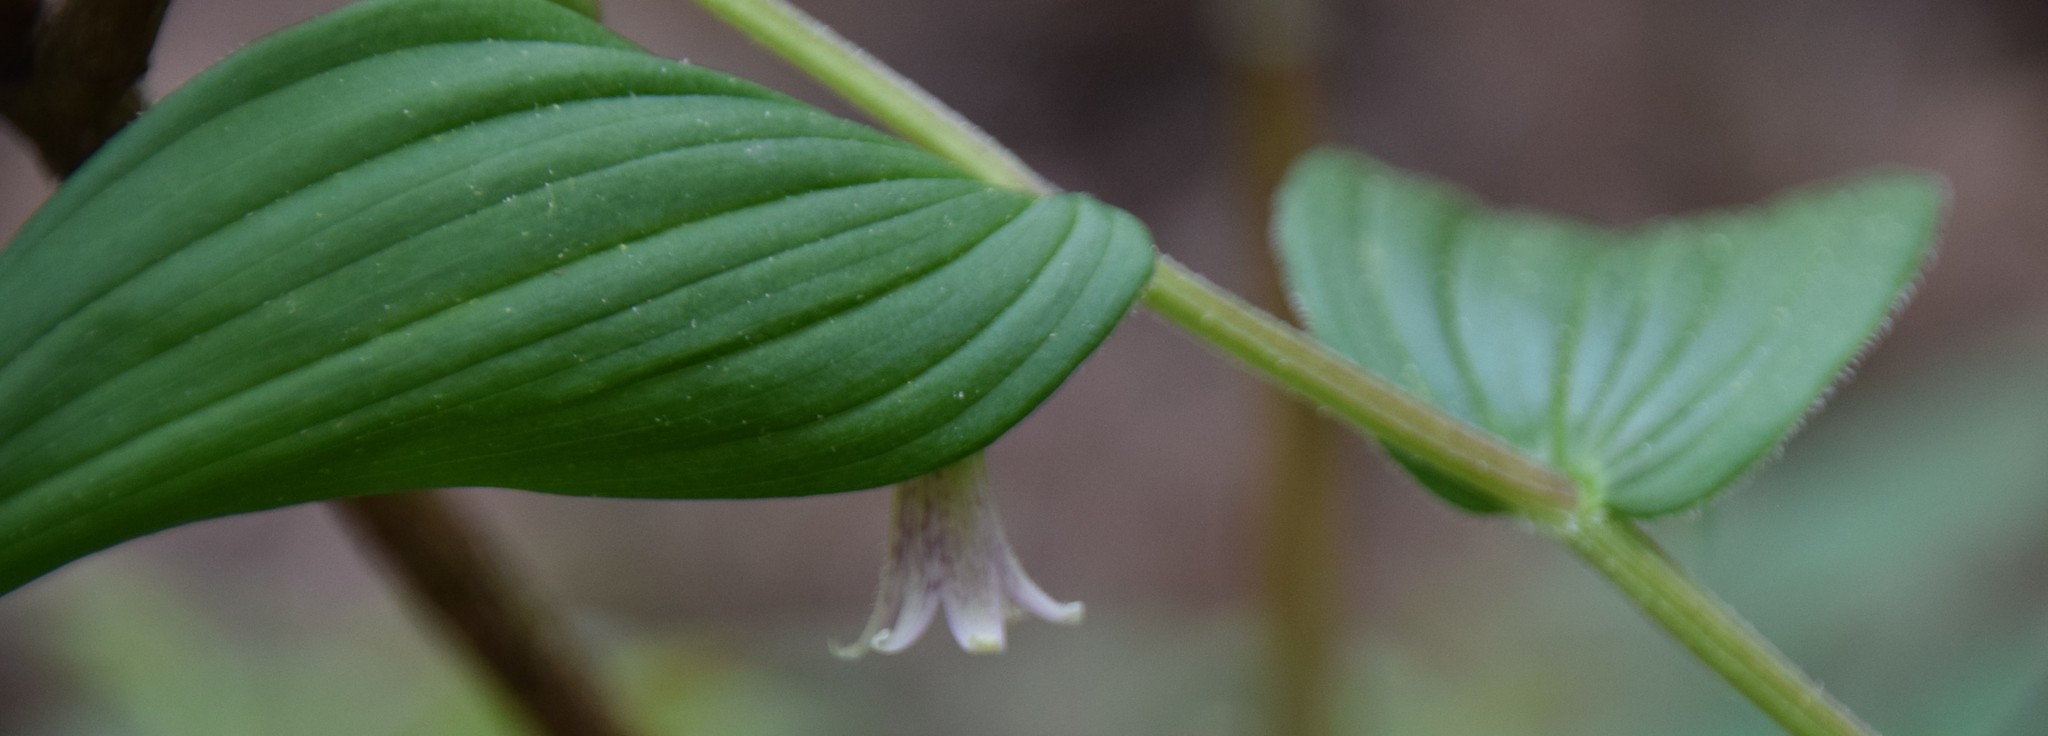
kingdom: Plantae
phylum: Tracheophyta
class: Liliopsida
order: Liliales
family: Liliaceae
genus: Streptopus
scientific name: Streptopus lanceolatus
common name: Rose mandarin
